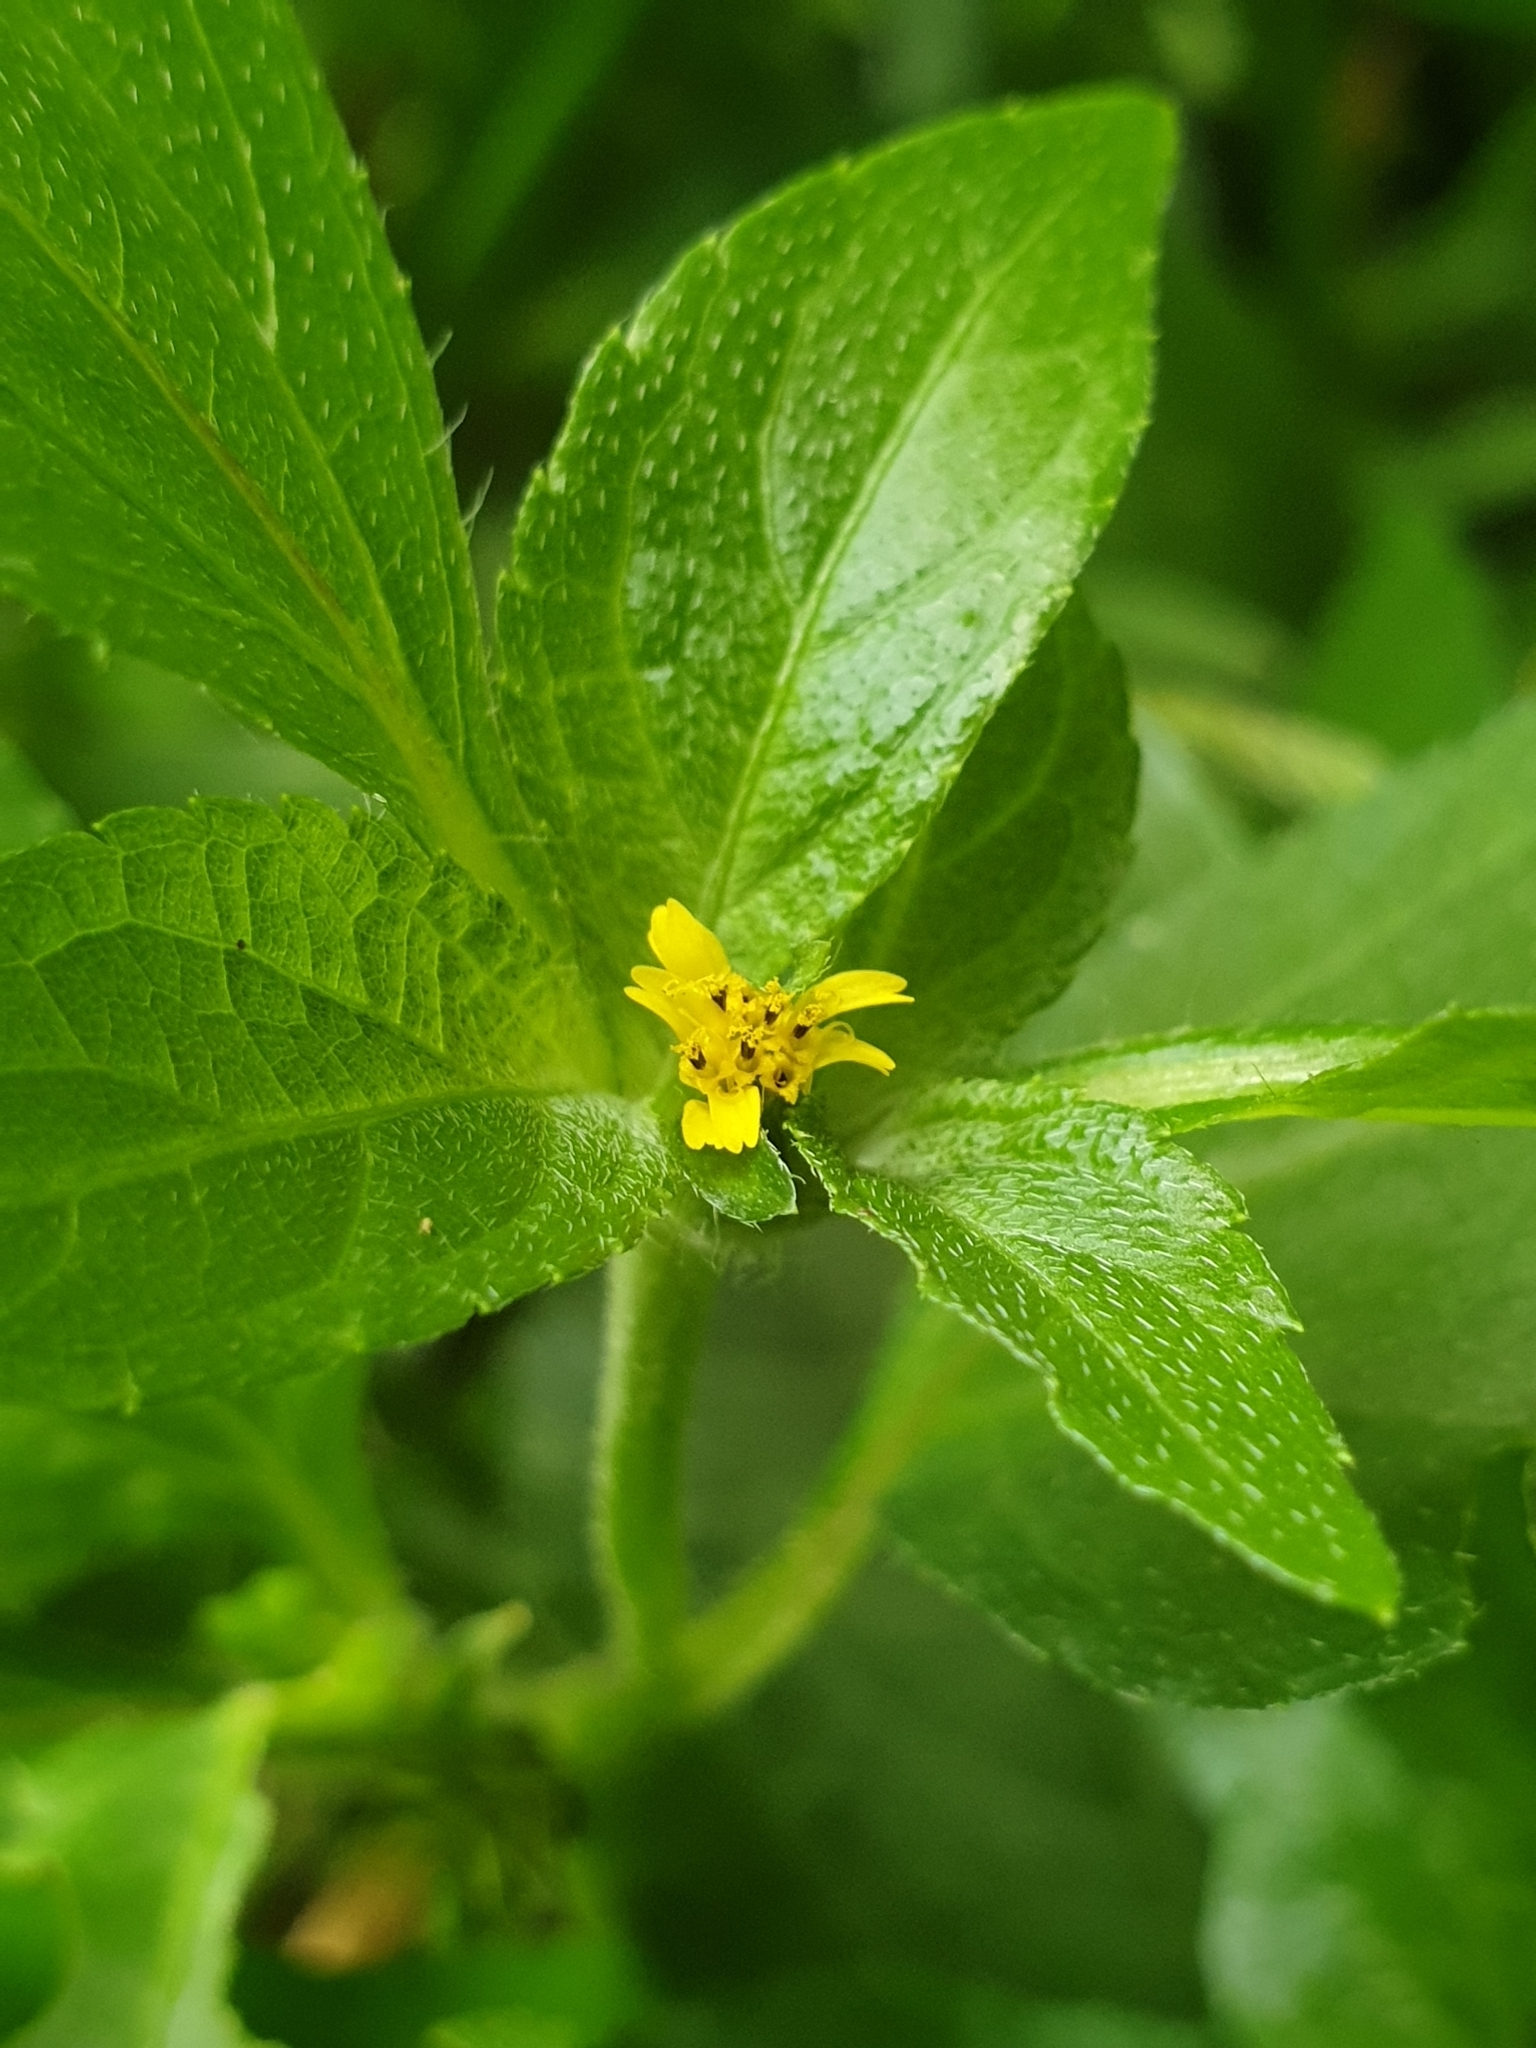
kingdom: Plantae
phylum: Tracheophyta
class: Magnoliopsida
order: Asterales
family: Asteraceae
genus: Synedrella
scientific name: Synedrella nodiflora
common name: Nodeweed
